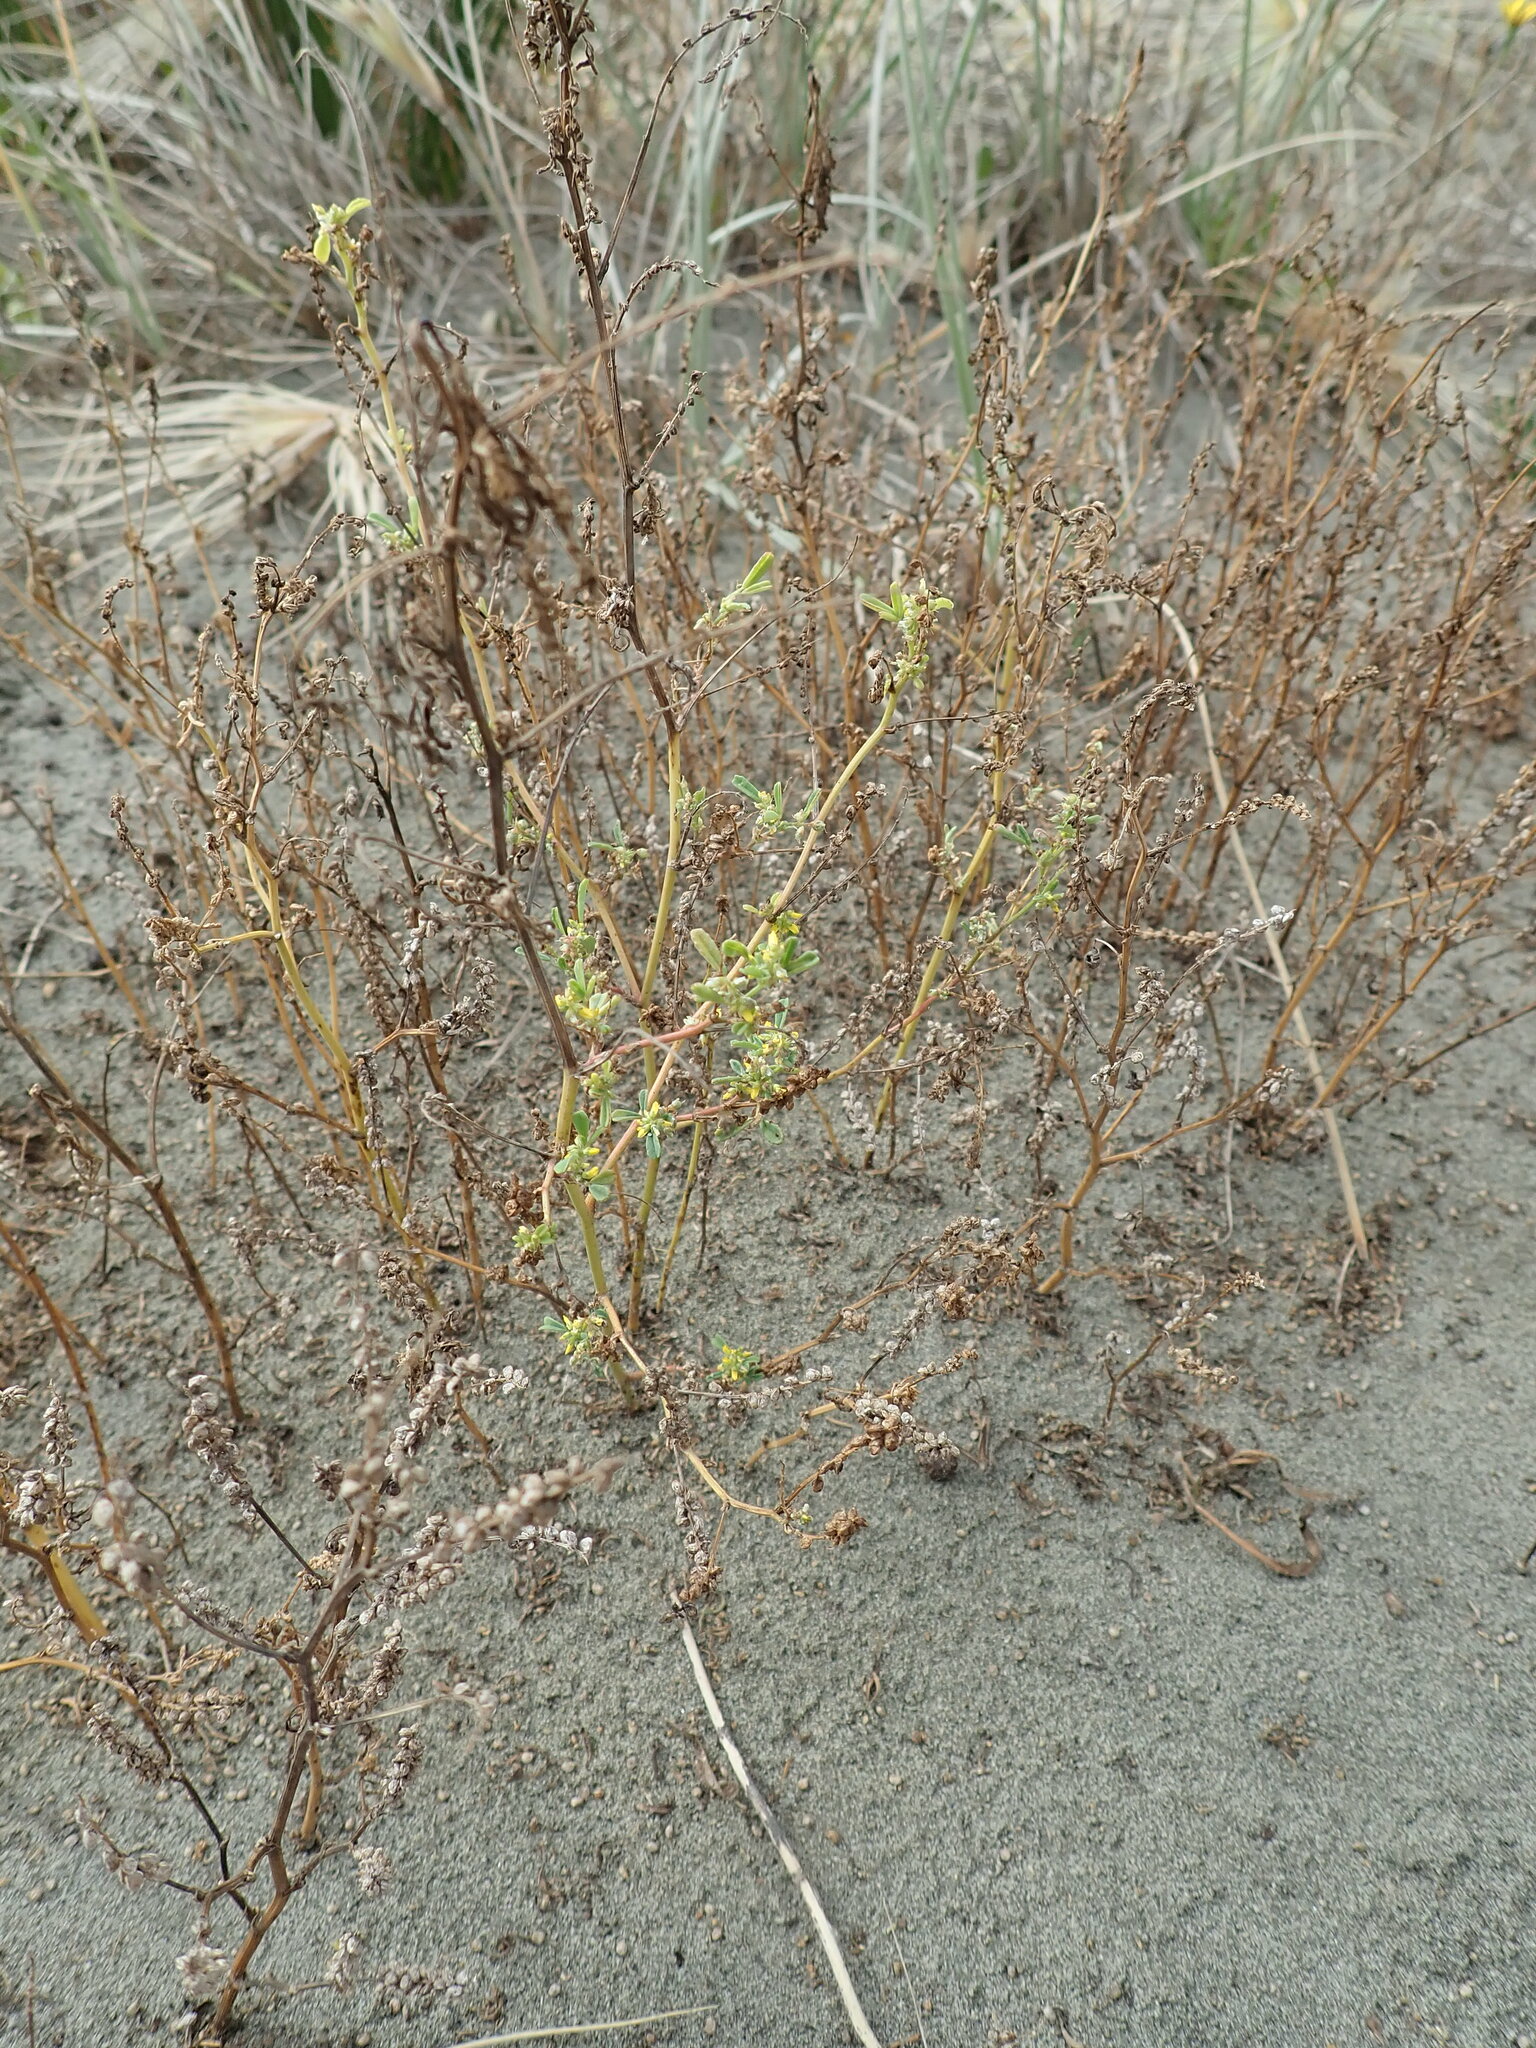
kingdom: Plantae
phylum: Tracheophyta
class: Magnoliopsida
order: Fabales
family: Fabaceae
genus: Melilotus
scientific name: Melilotus indicus
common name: Small melilot
